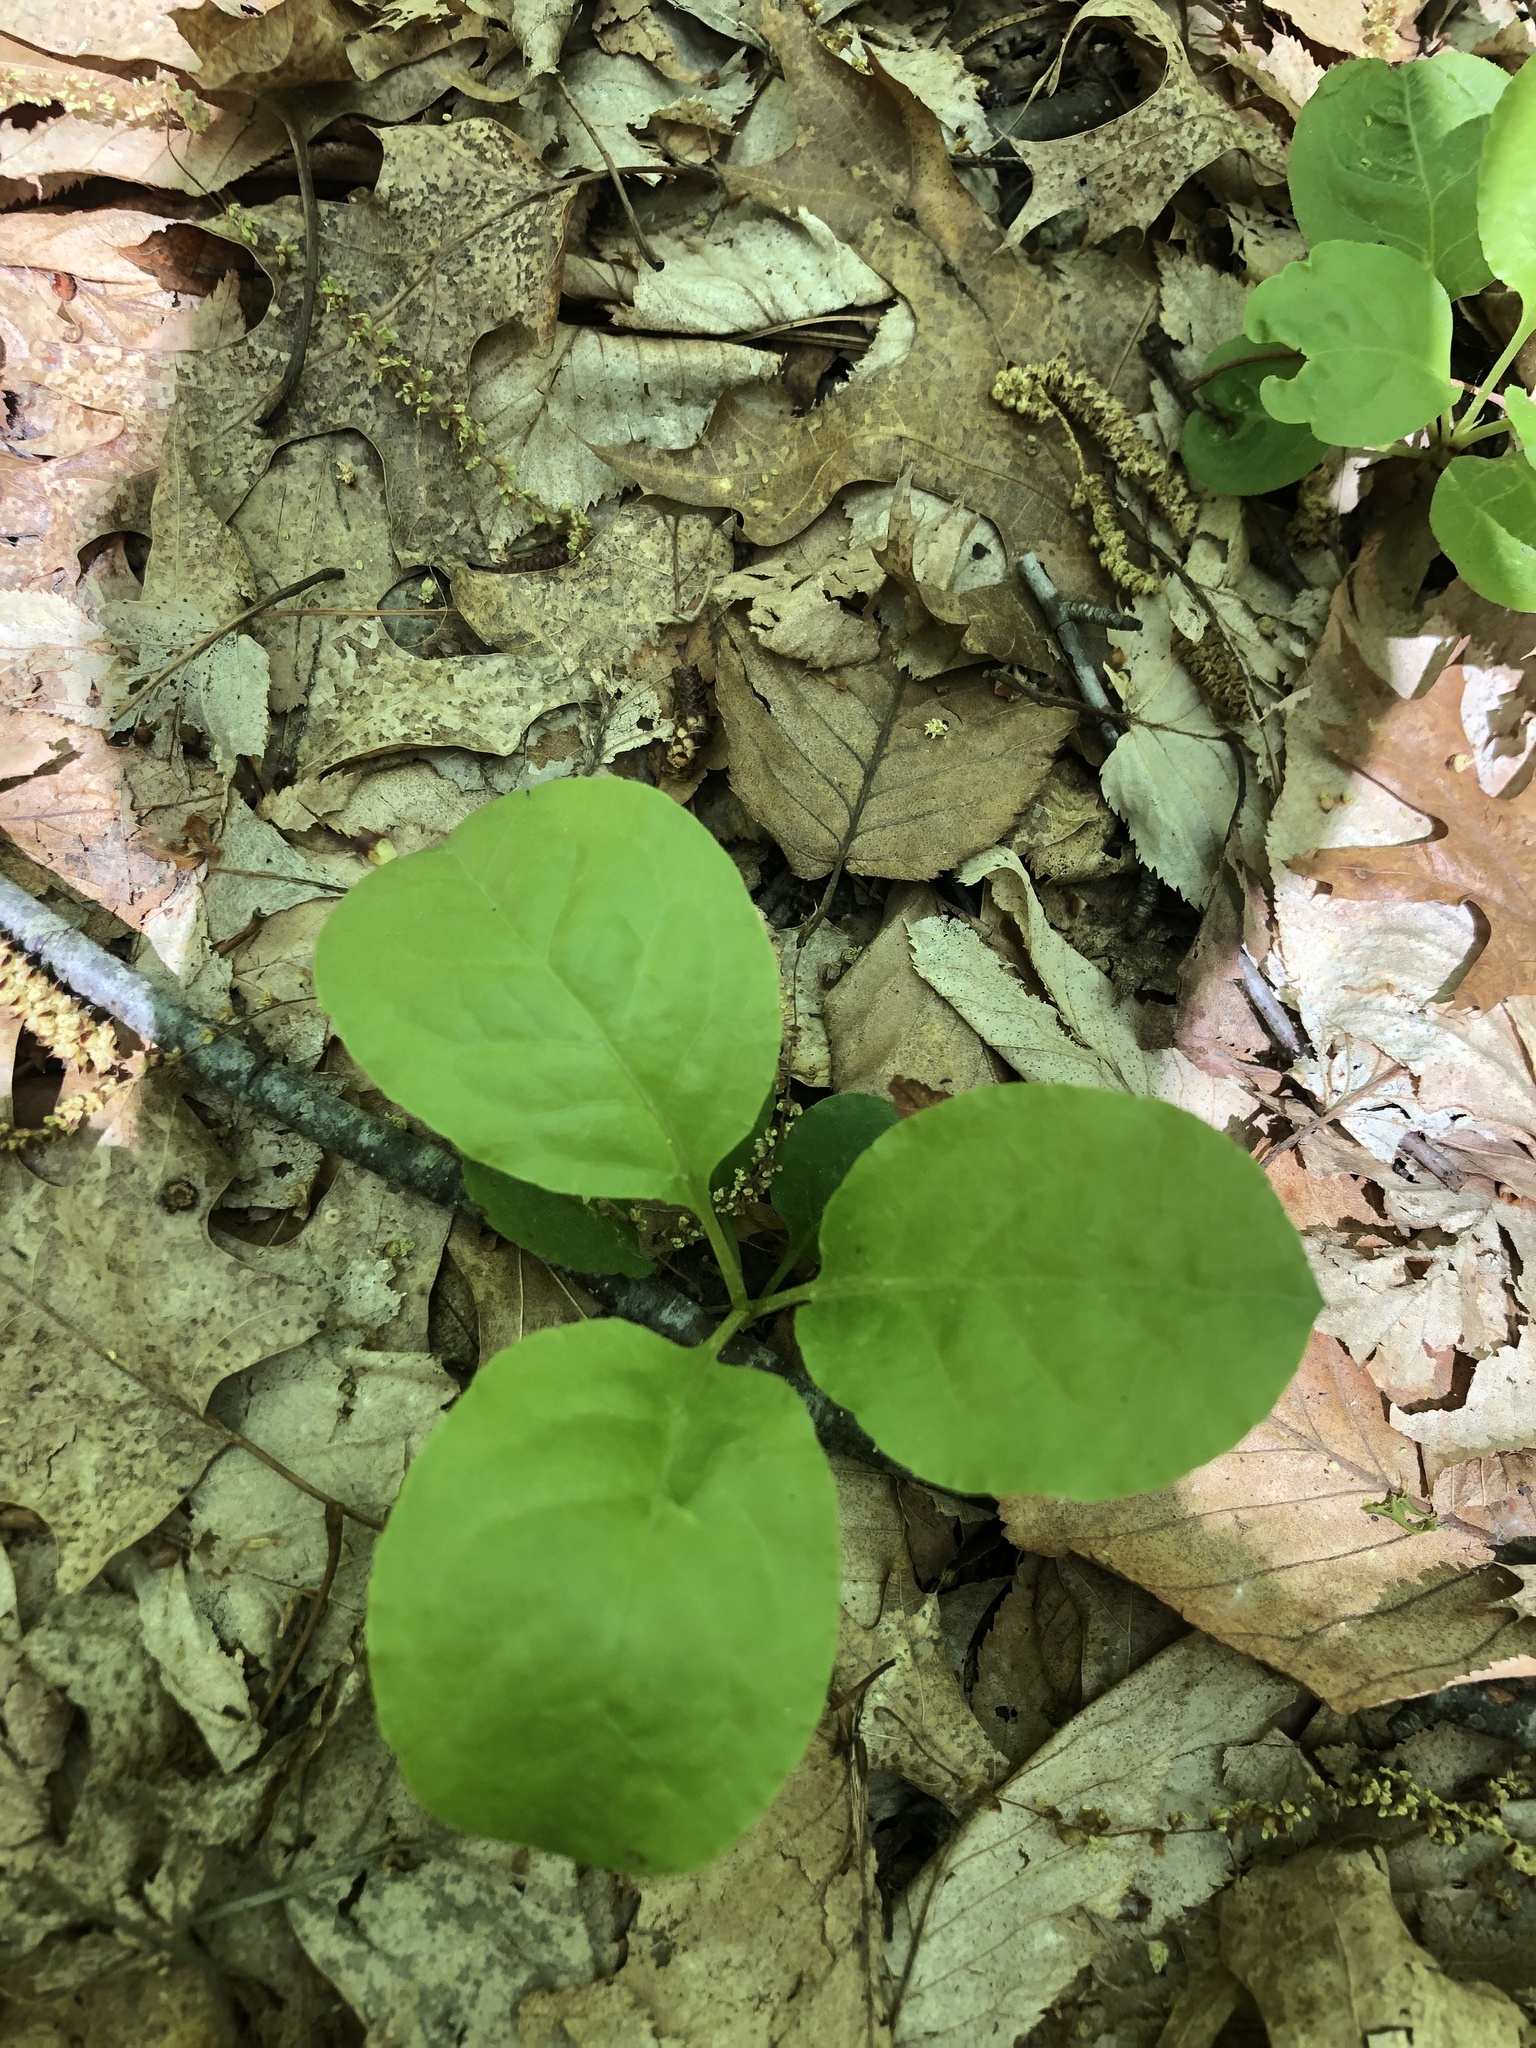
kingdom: Plantae
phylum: Tracheophyta
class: Magnoliopsida
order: Ericales
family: Ericaceae
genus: Pyrola
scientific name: Pyrola elliptica
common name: Shinleaf
